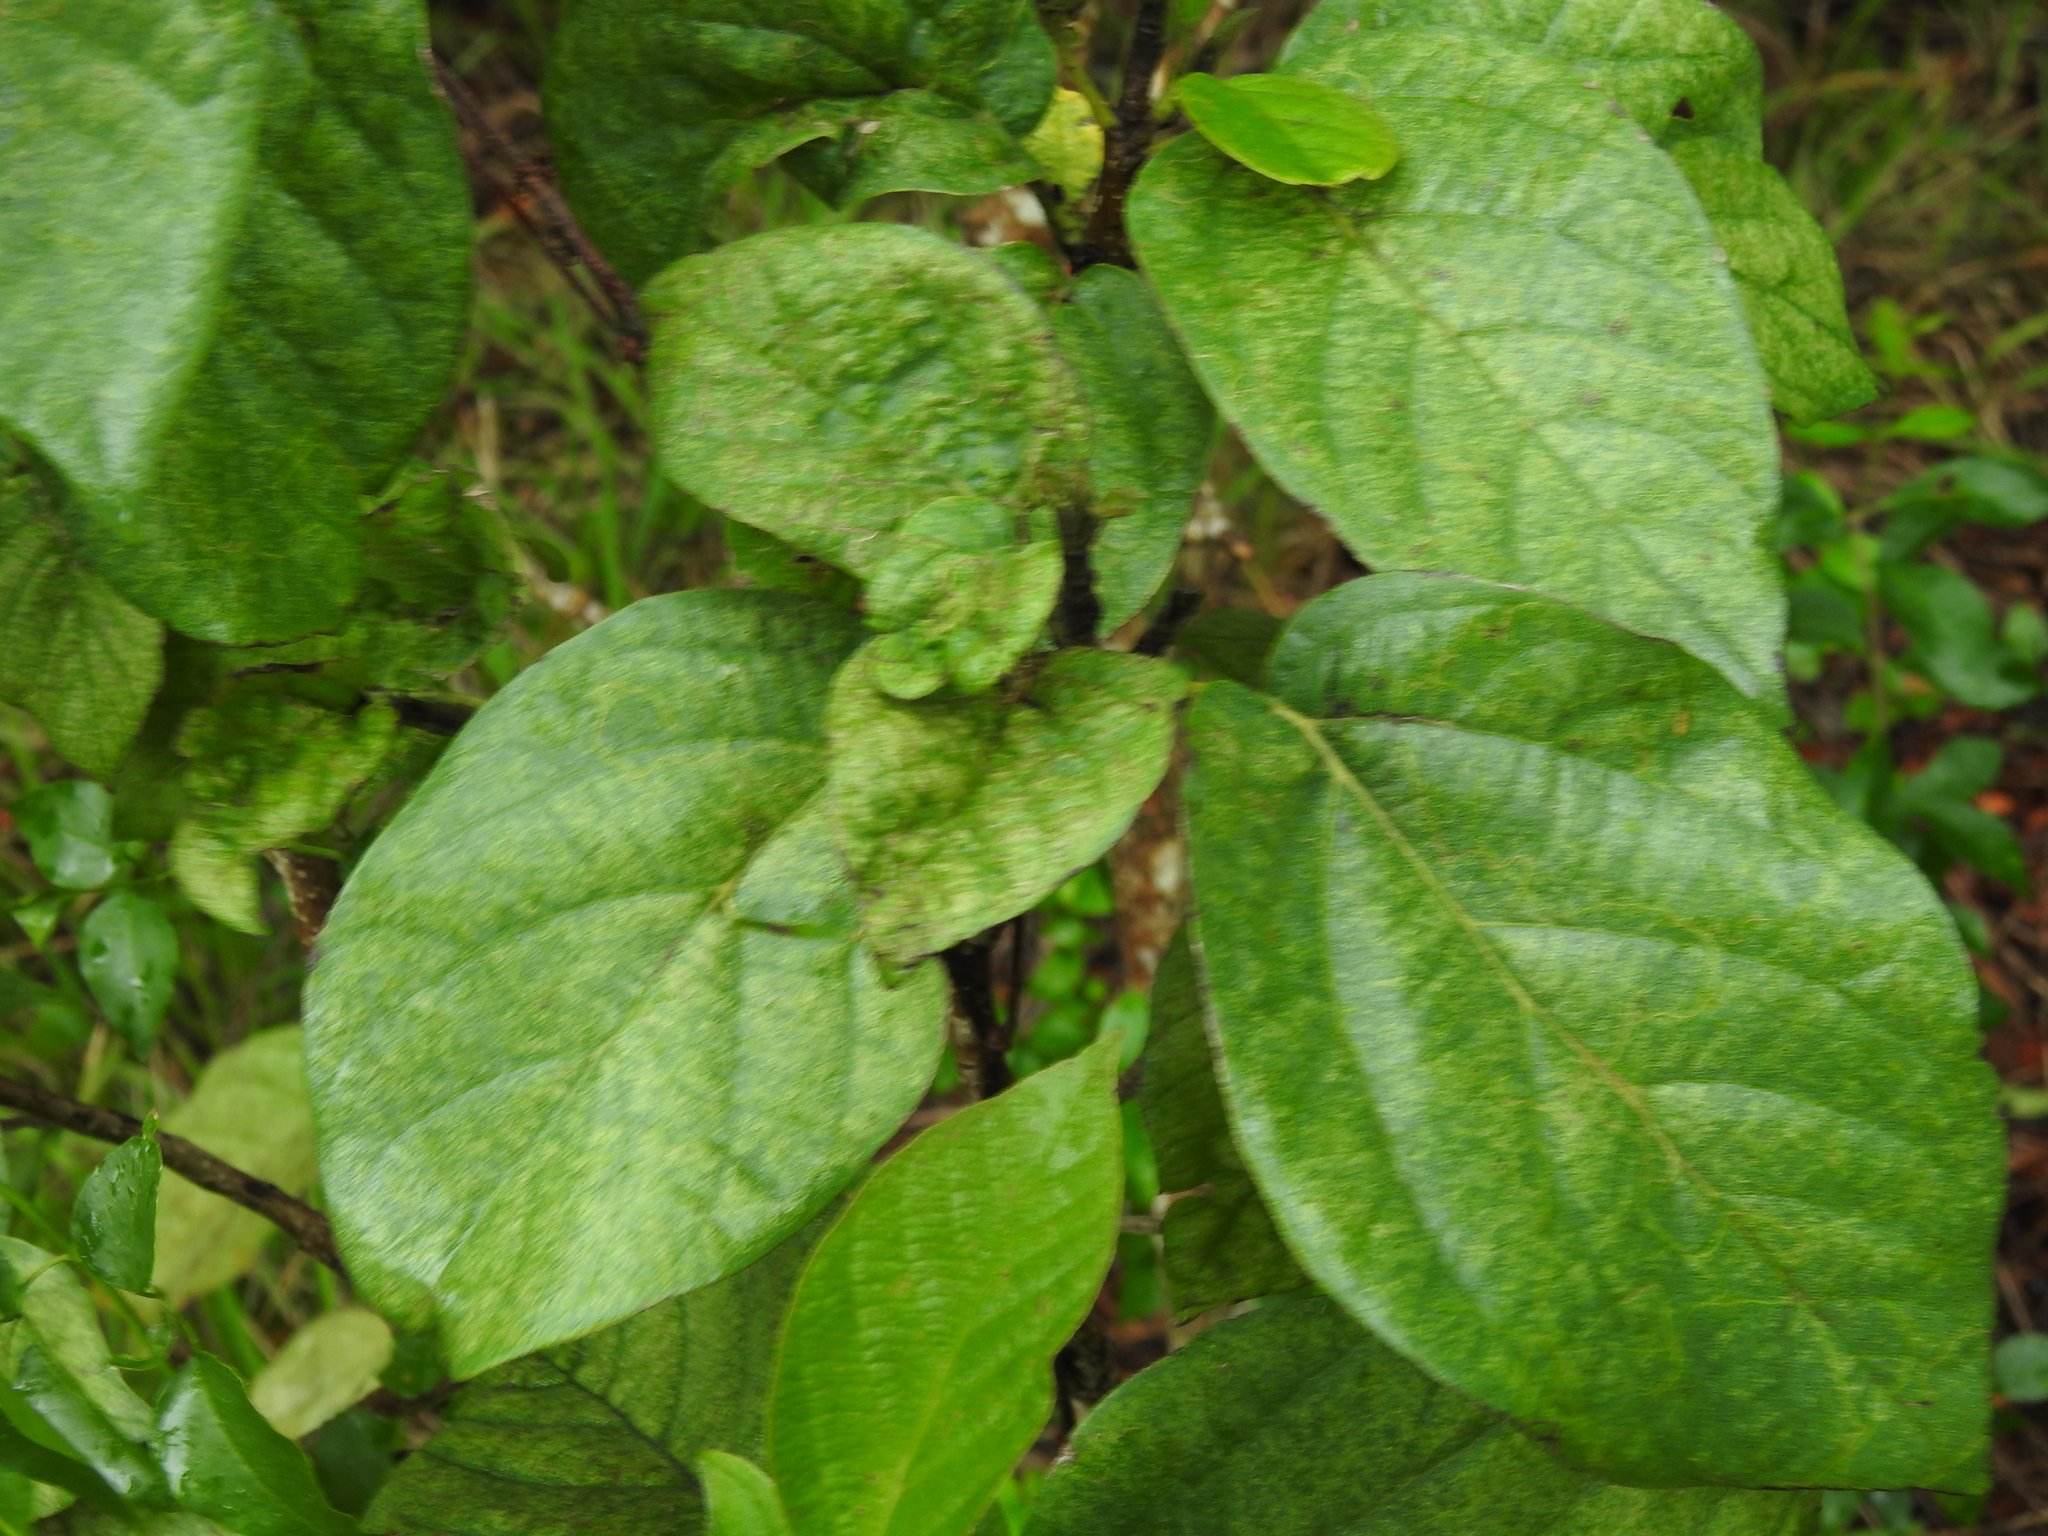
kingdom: Plantae
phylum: Tracheophyta
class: Magnoliopsida
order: Boraginales
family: Cordiaceae
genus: Cordia
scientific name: Cordia sebestena
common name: Largeleaf geigertree
